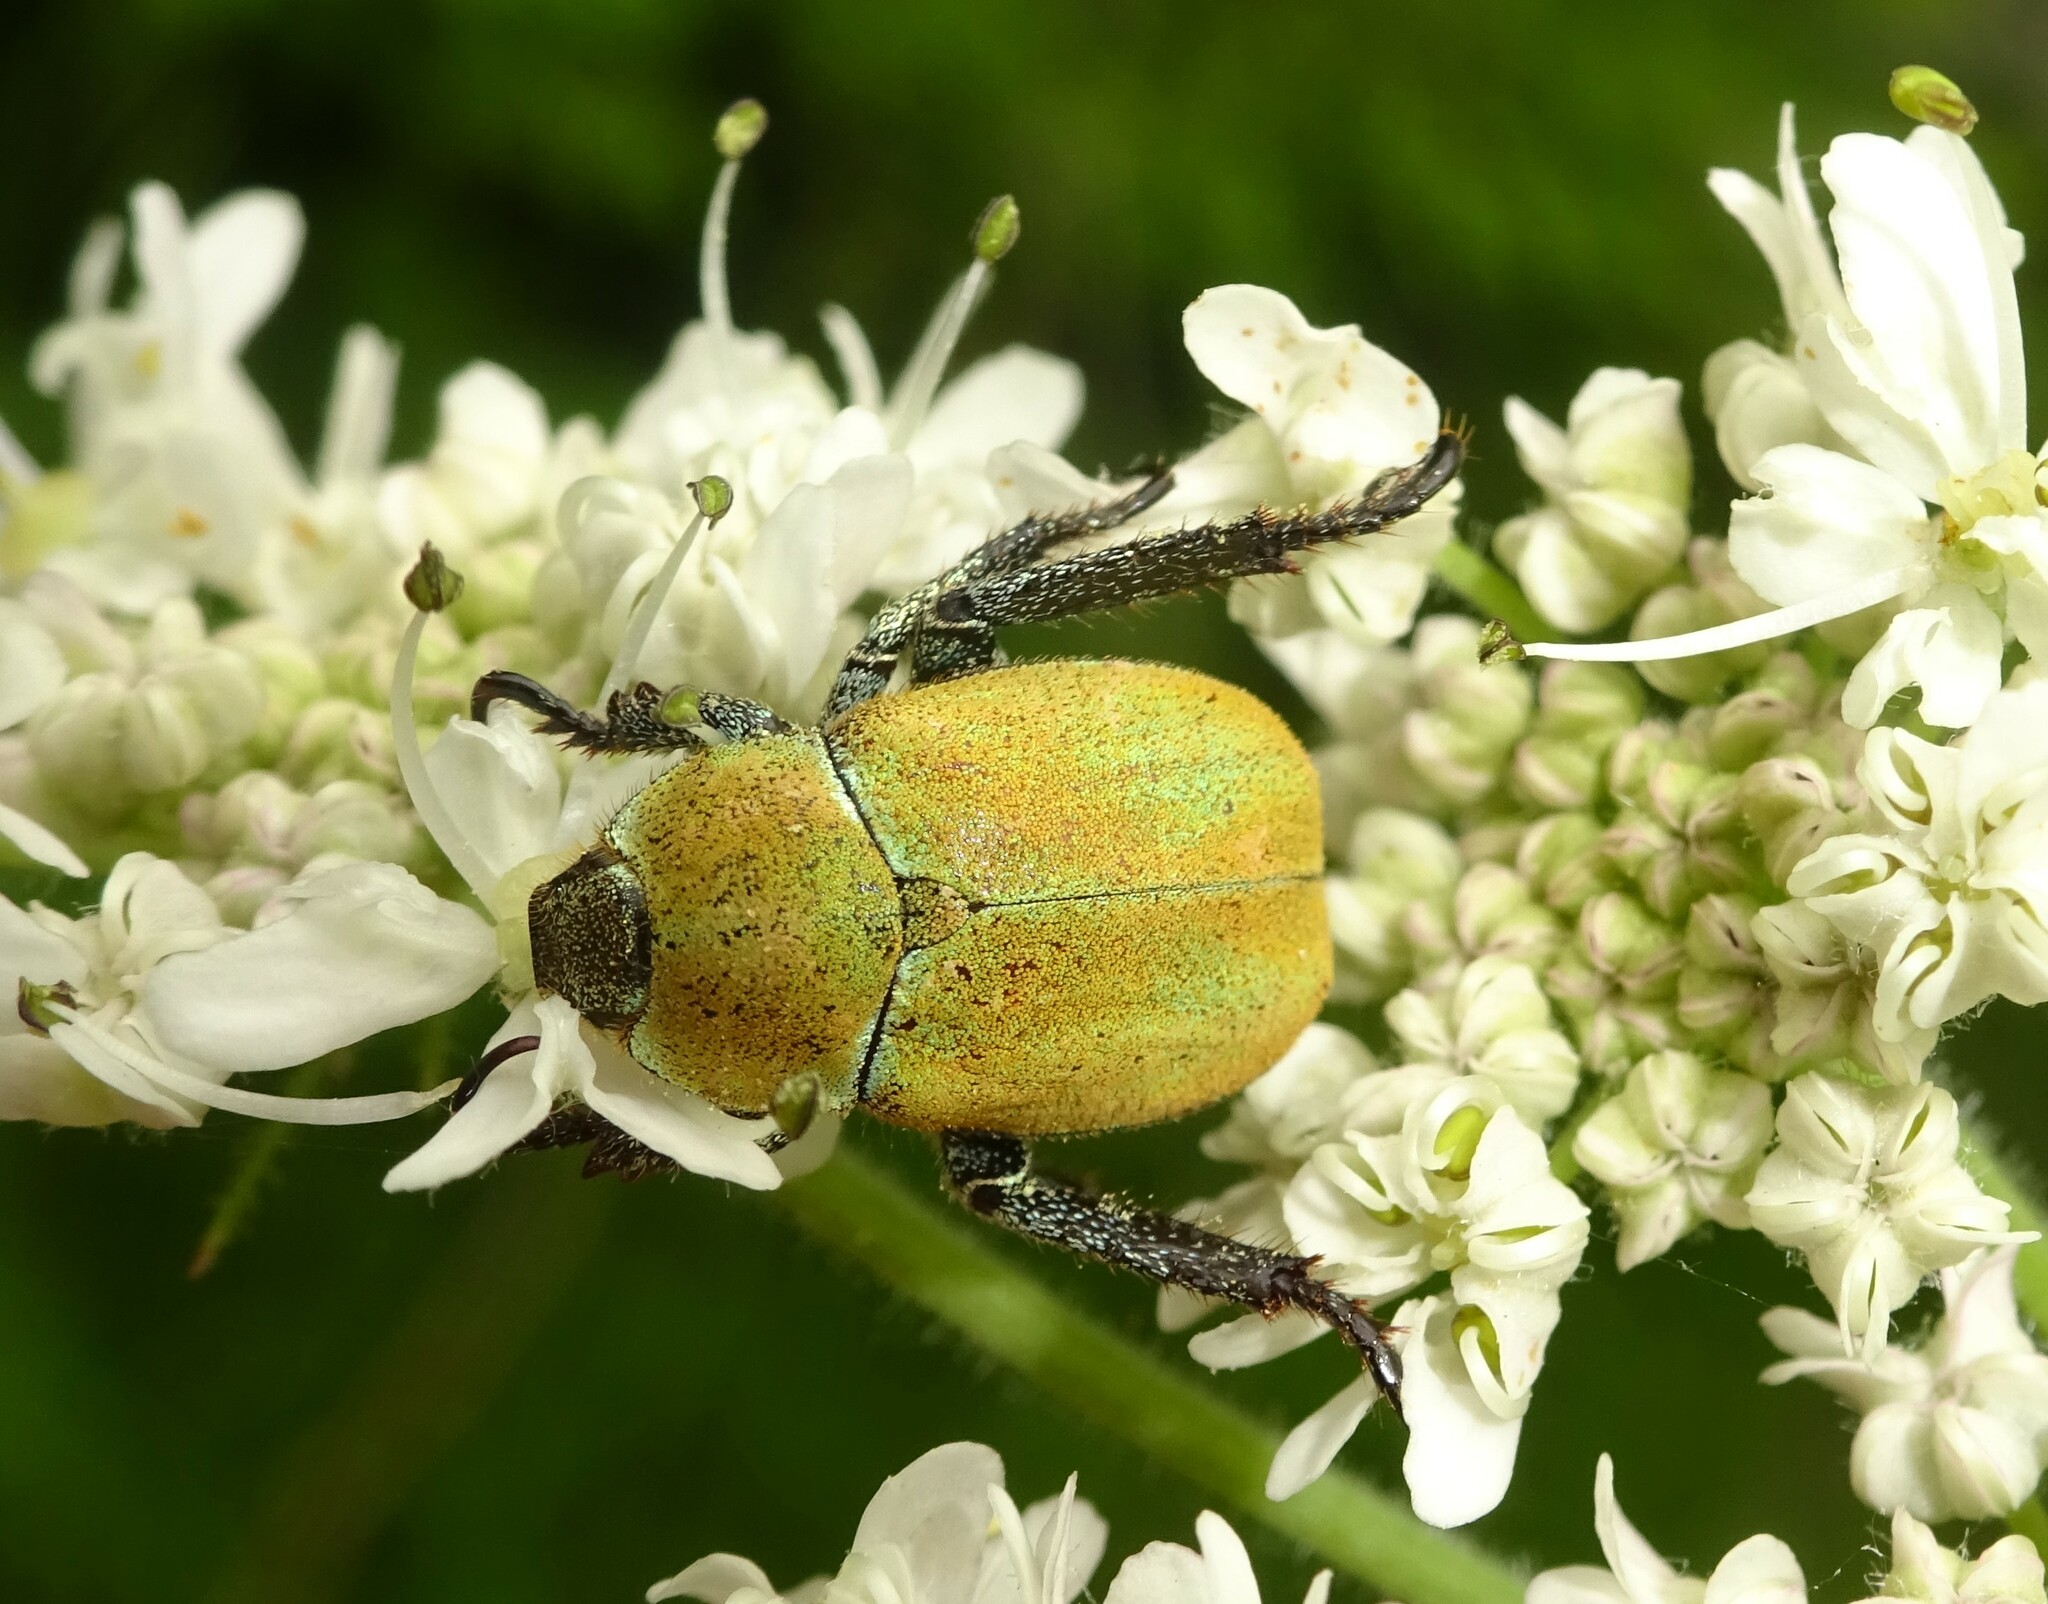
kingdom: Animalia
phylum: Arthropoda
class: Insecta
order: Coleoptera
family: Scarabaeidae
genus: Hoplia
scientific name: Hoplia argentea
